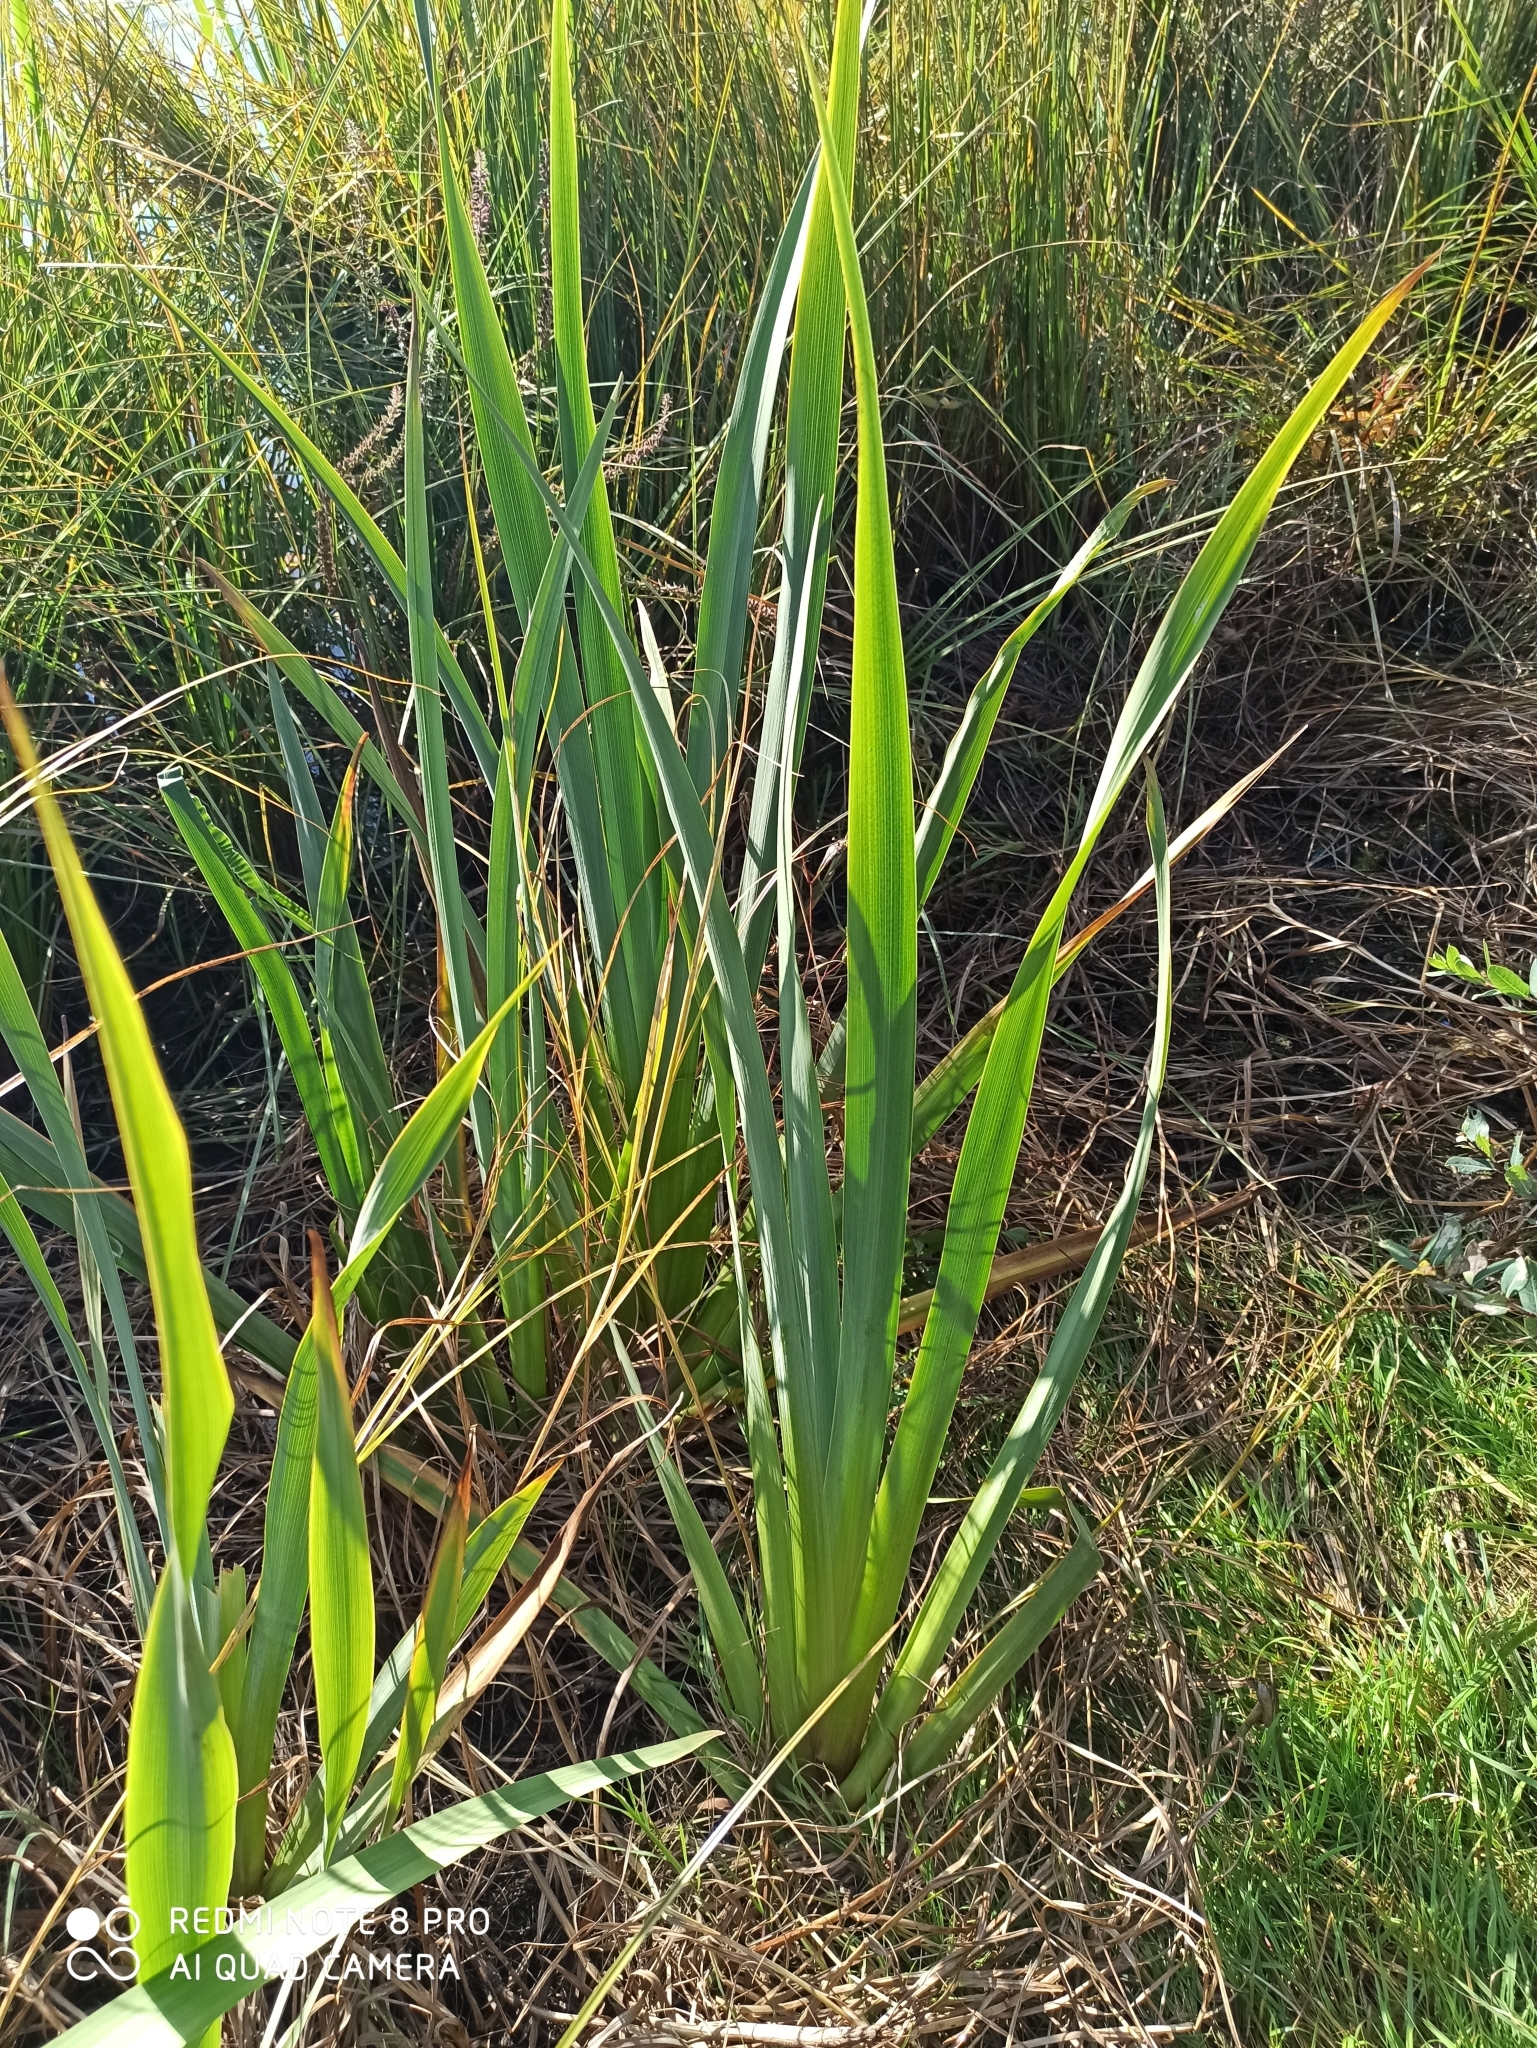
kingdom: Plantae
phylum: Tracheophyta
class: Liliopsida
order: Asparagales
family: Iridaceae
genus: Iris
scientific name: Iris pseudacorus
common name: Yellow flag
